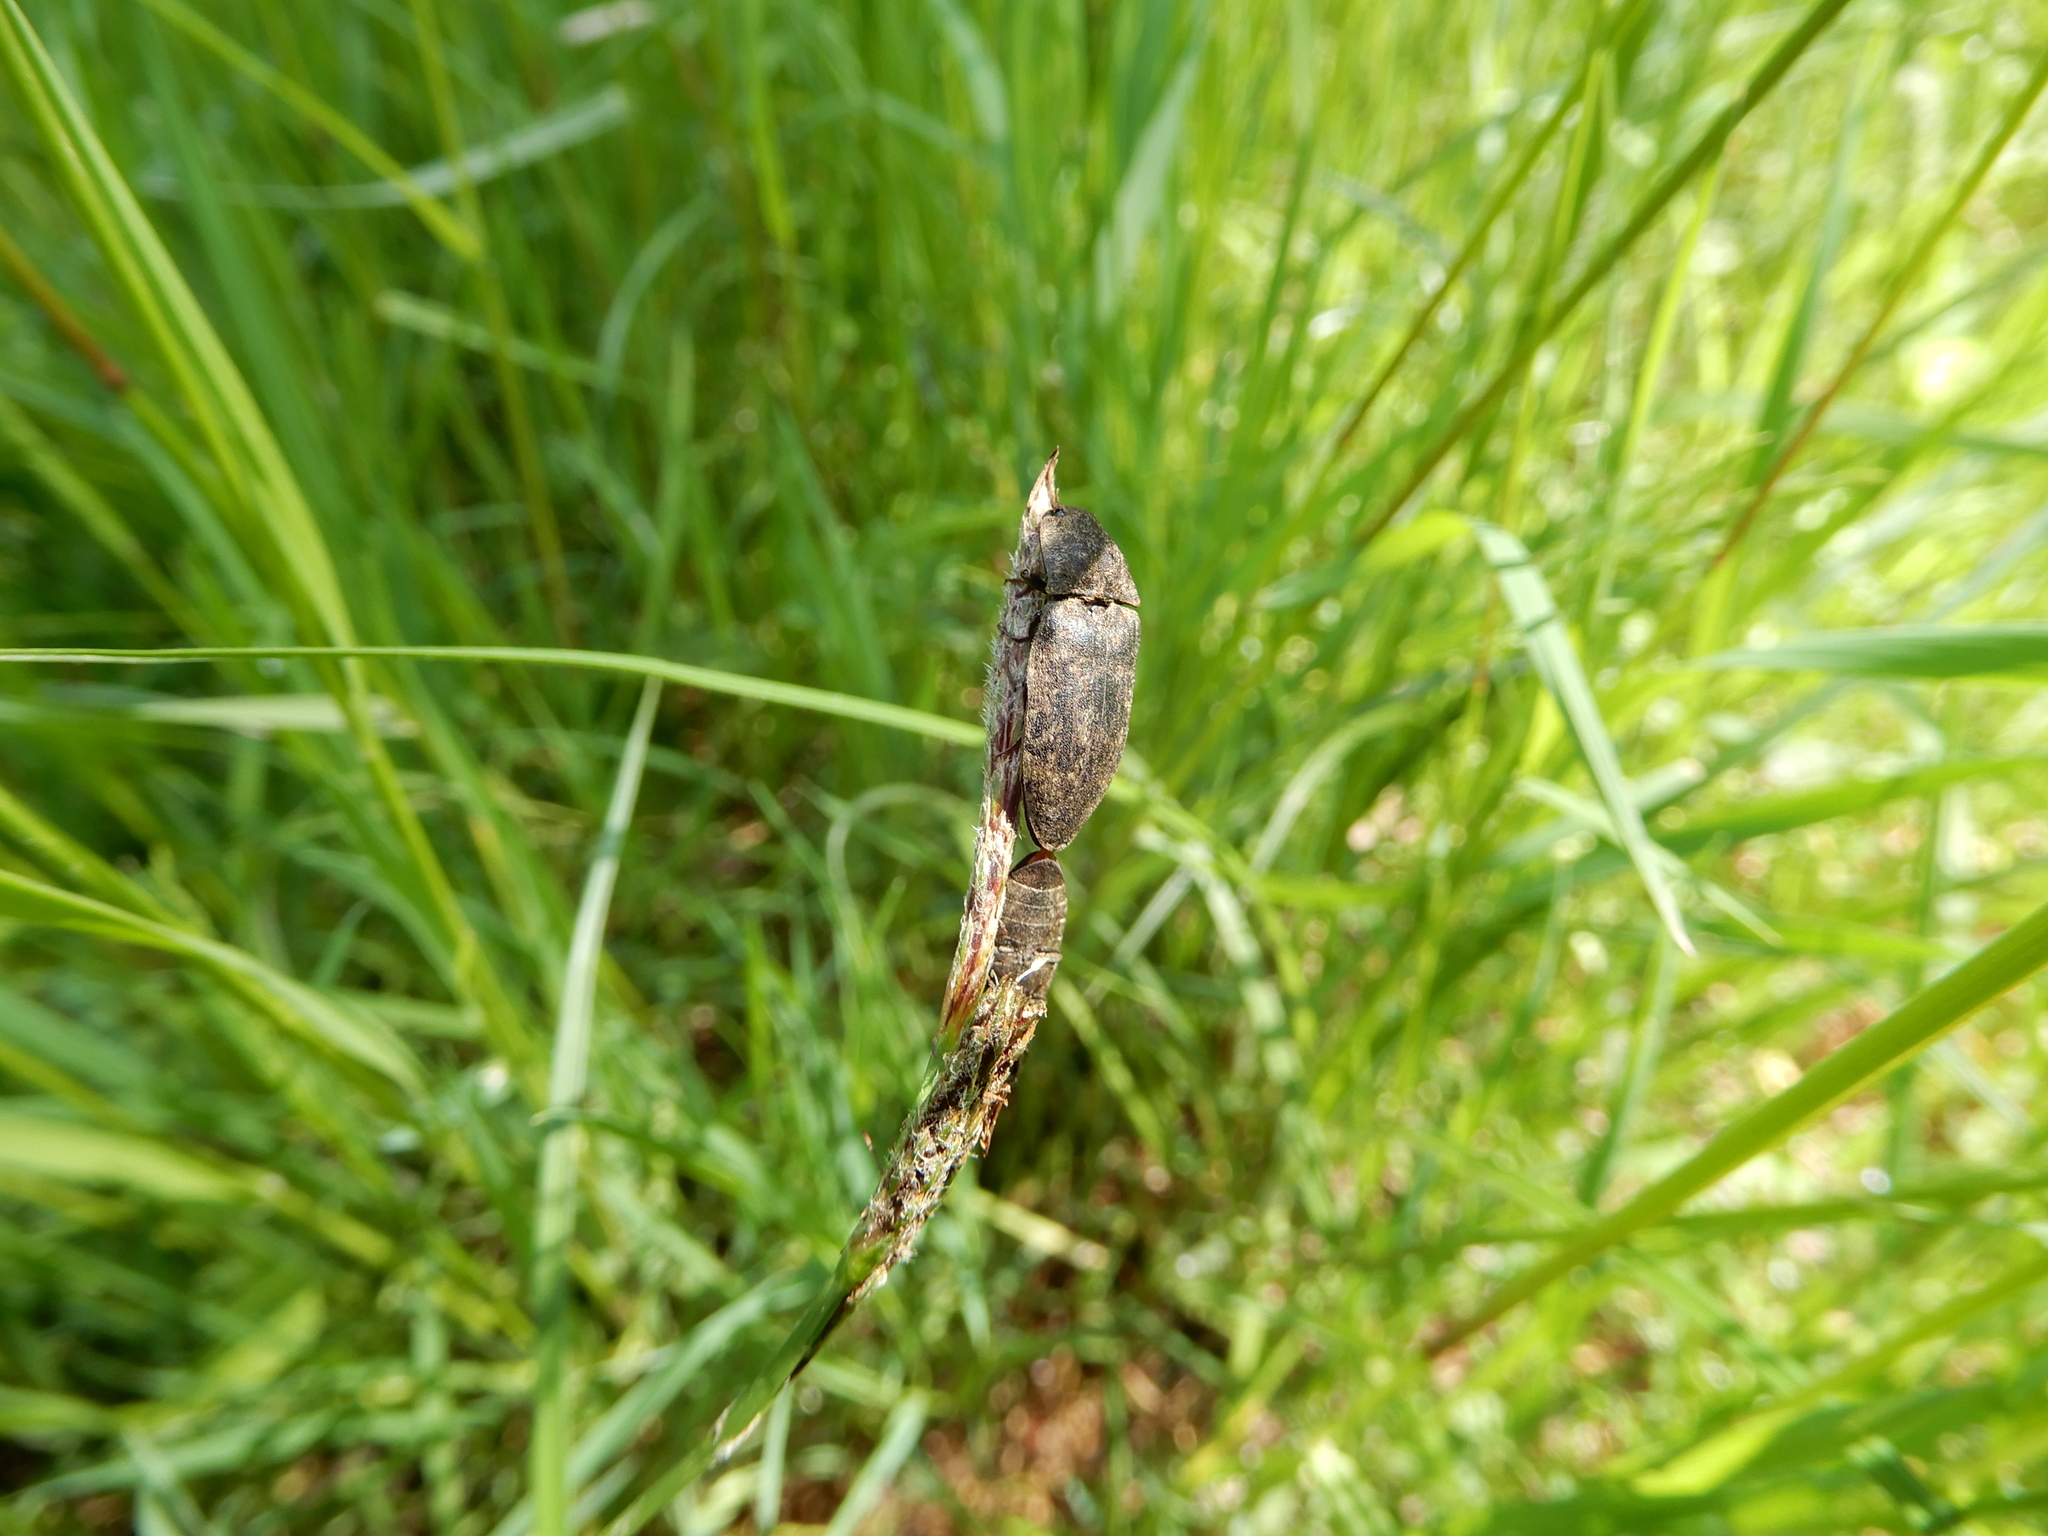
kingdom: Animalia
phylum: Arthropoda
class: Insecta
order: Coleoptera
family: Elateridae
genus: Agrypnus
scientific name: Agrypnus murinus
